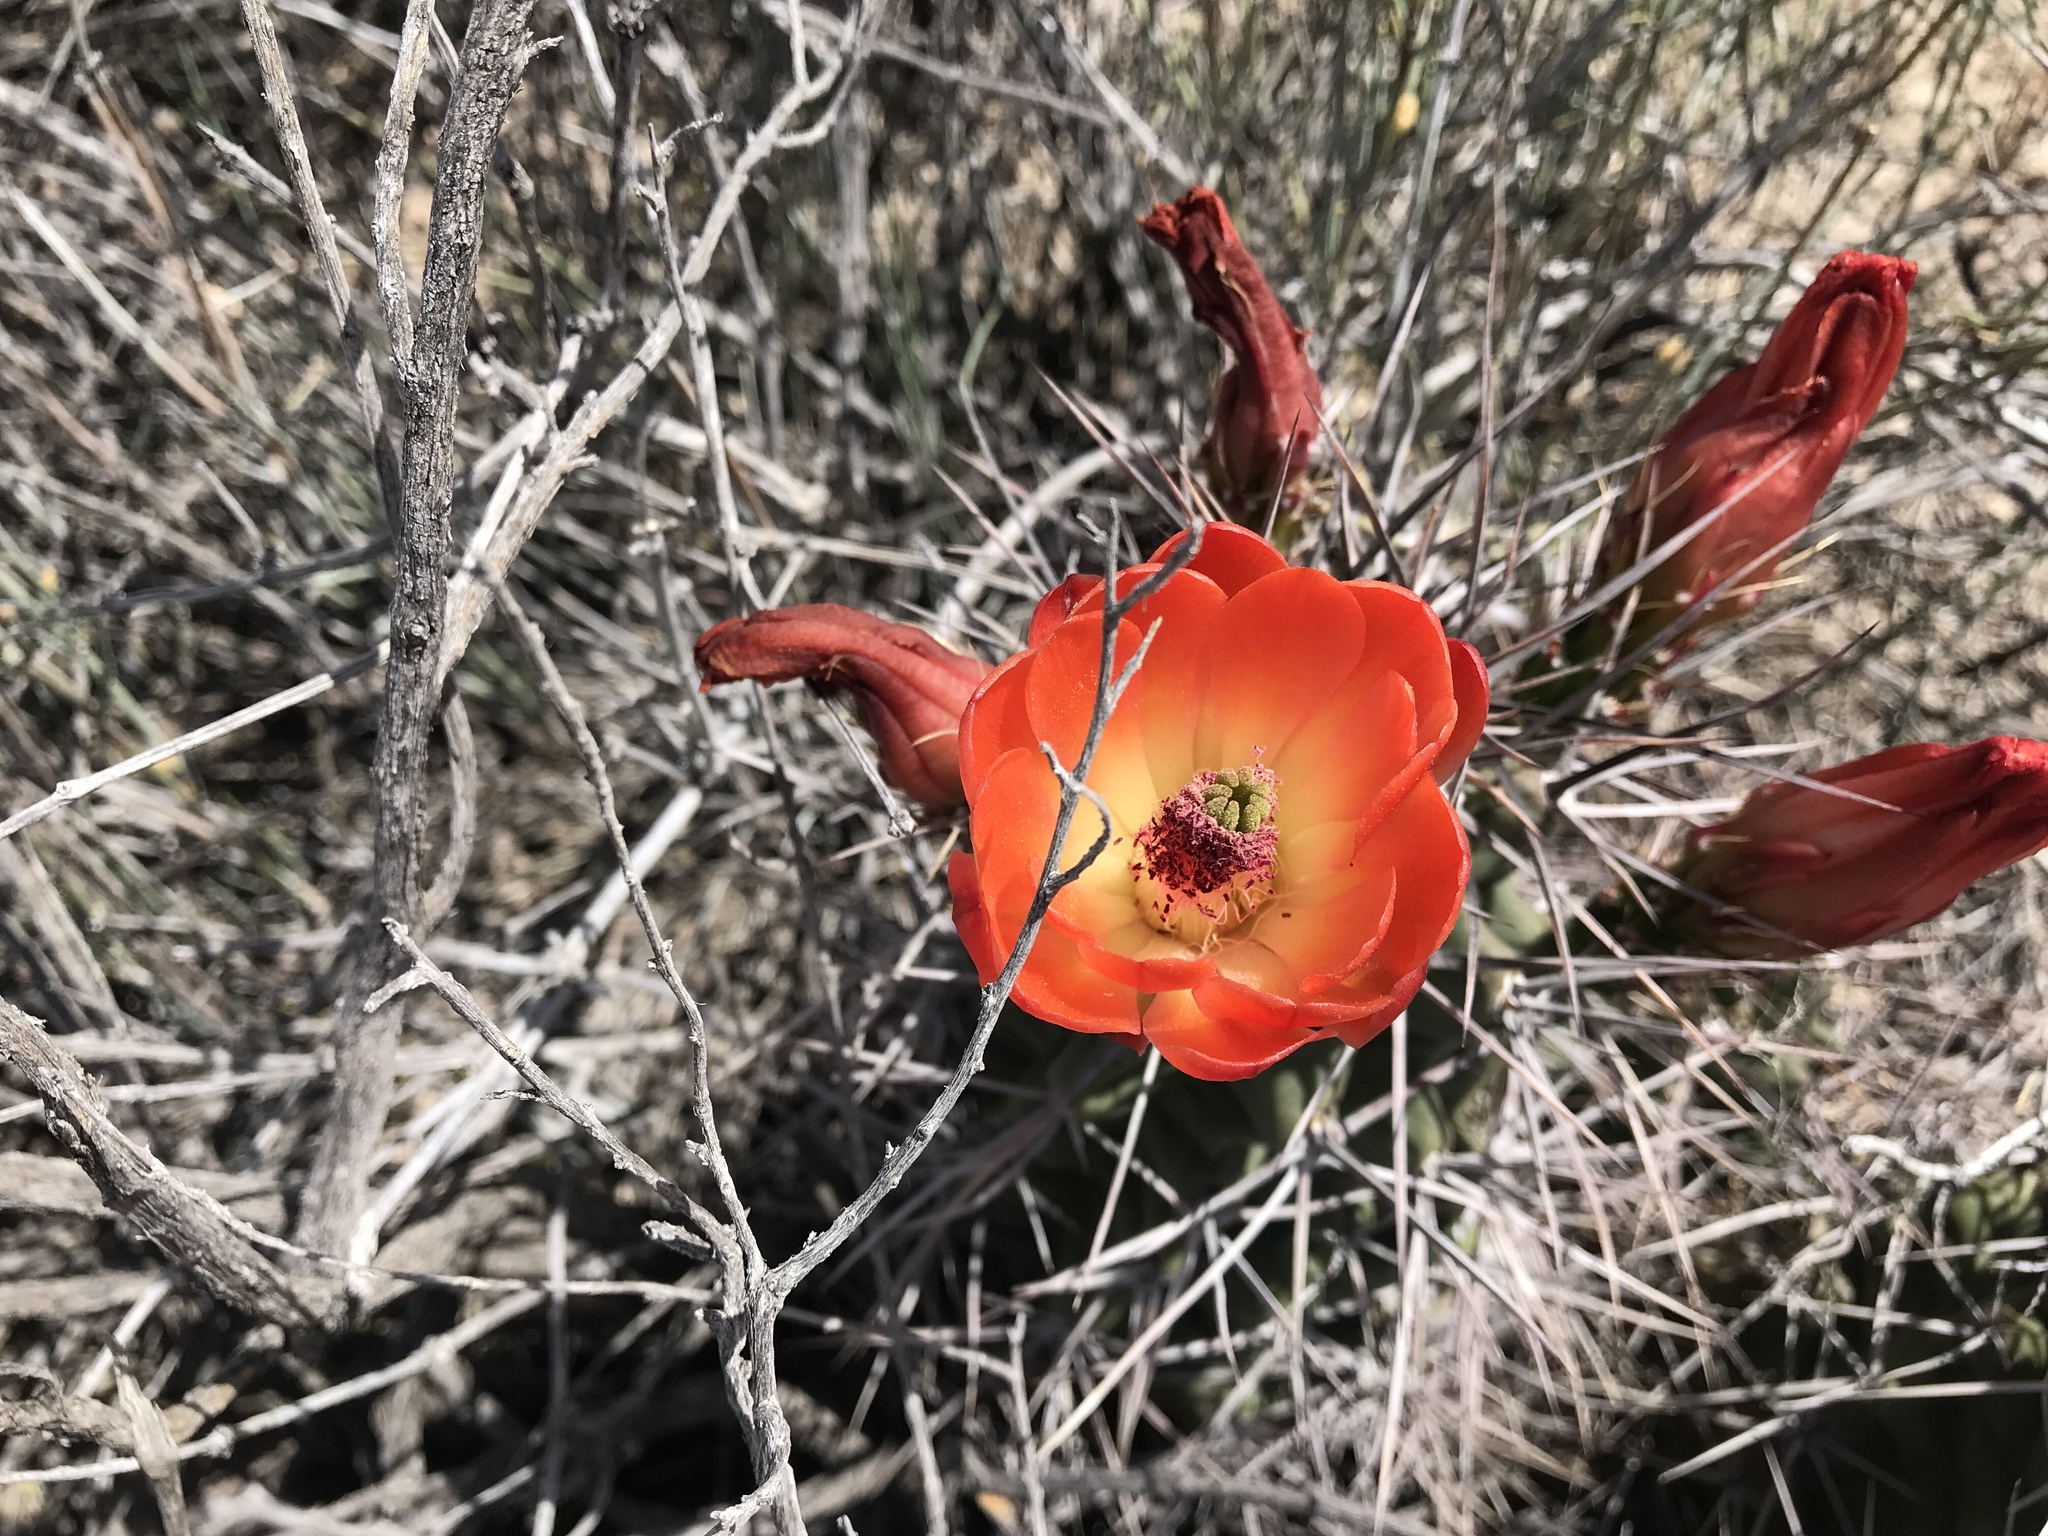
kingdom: Plantae
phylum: Tracheophyta
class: Magnoliopsida
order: Caryophyllales
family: Cactaceae
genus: Echinocereus
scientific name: Echinocereus triglochidiatus
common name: Claretcup hedgehog
